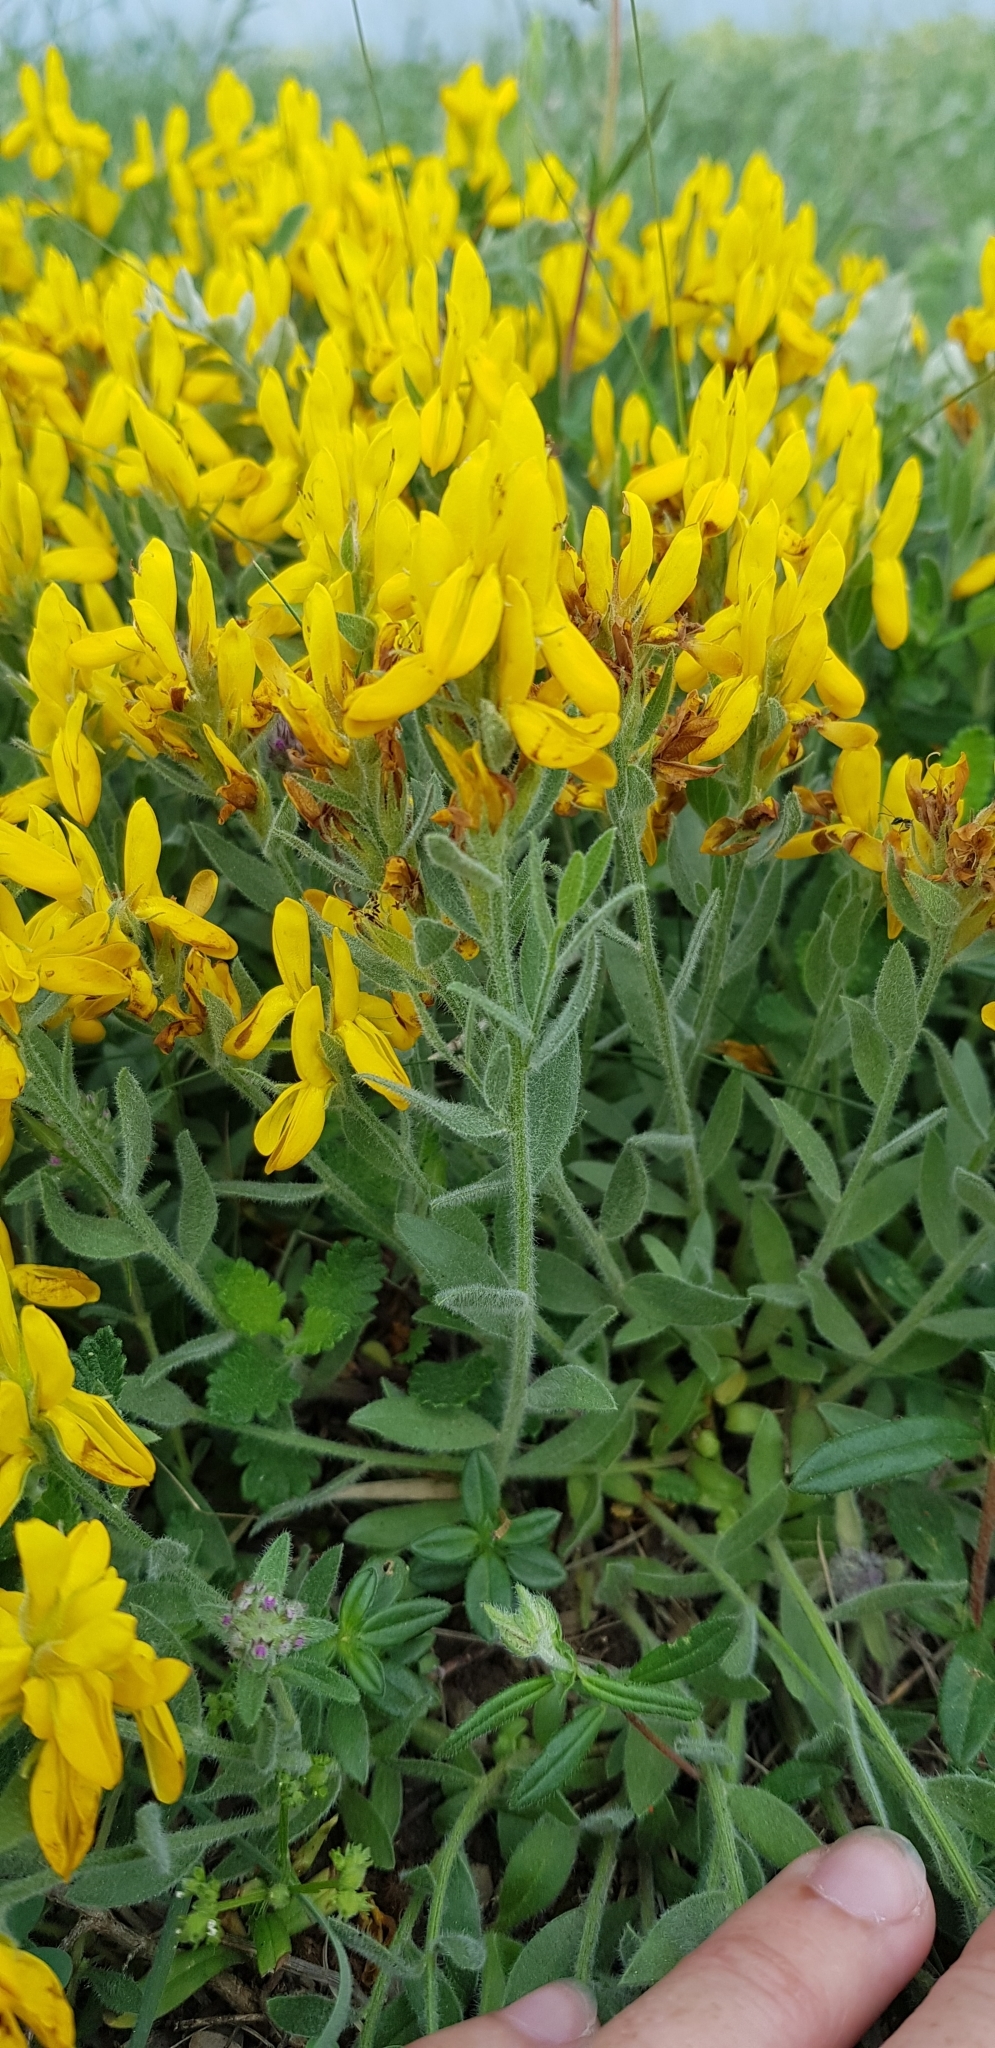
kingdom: Plantae
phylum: Tracheophyta
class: Magnoliopsida
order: Fabales
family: Fabaceae
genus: Genista
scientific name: Genista humifusa
